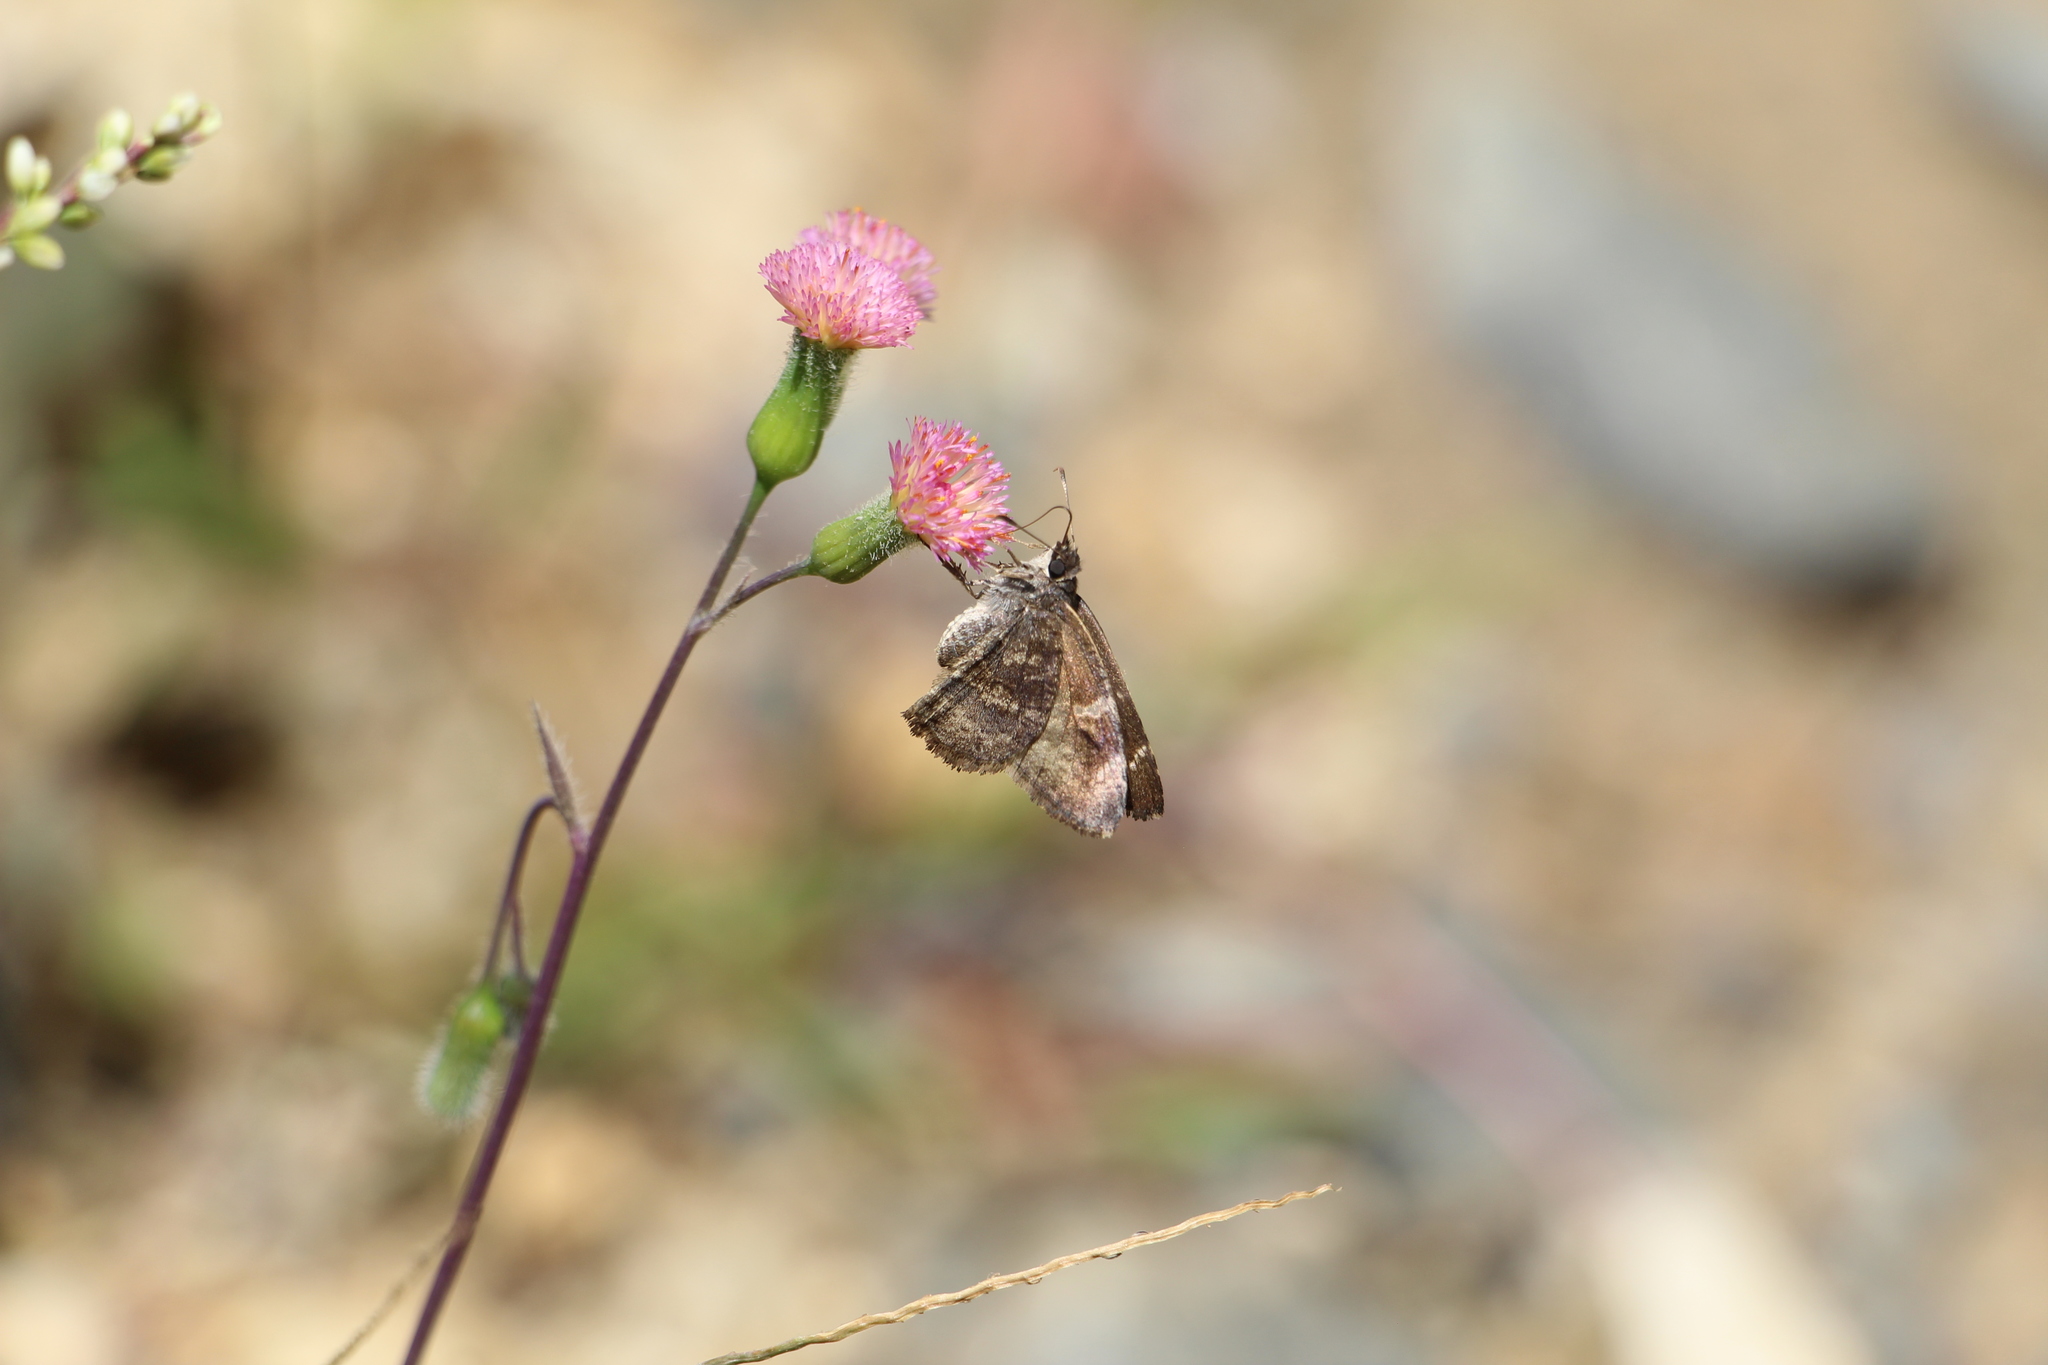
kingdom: Animalia
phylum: Arthropoda
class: Insecta
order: Lepidoptera
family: Hesperiidae
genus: Caicella
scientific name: Caicella calchas
